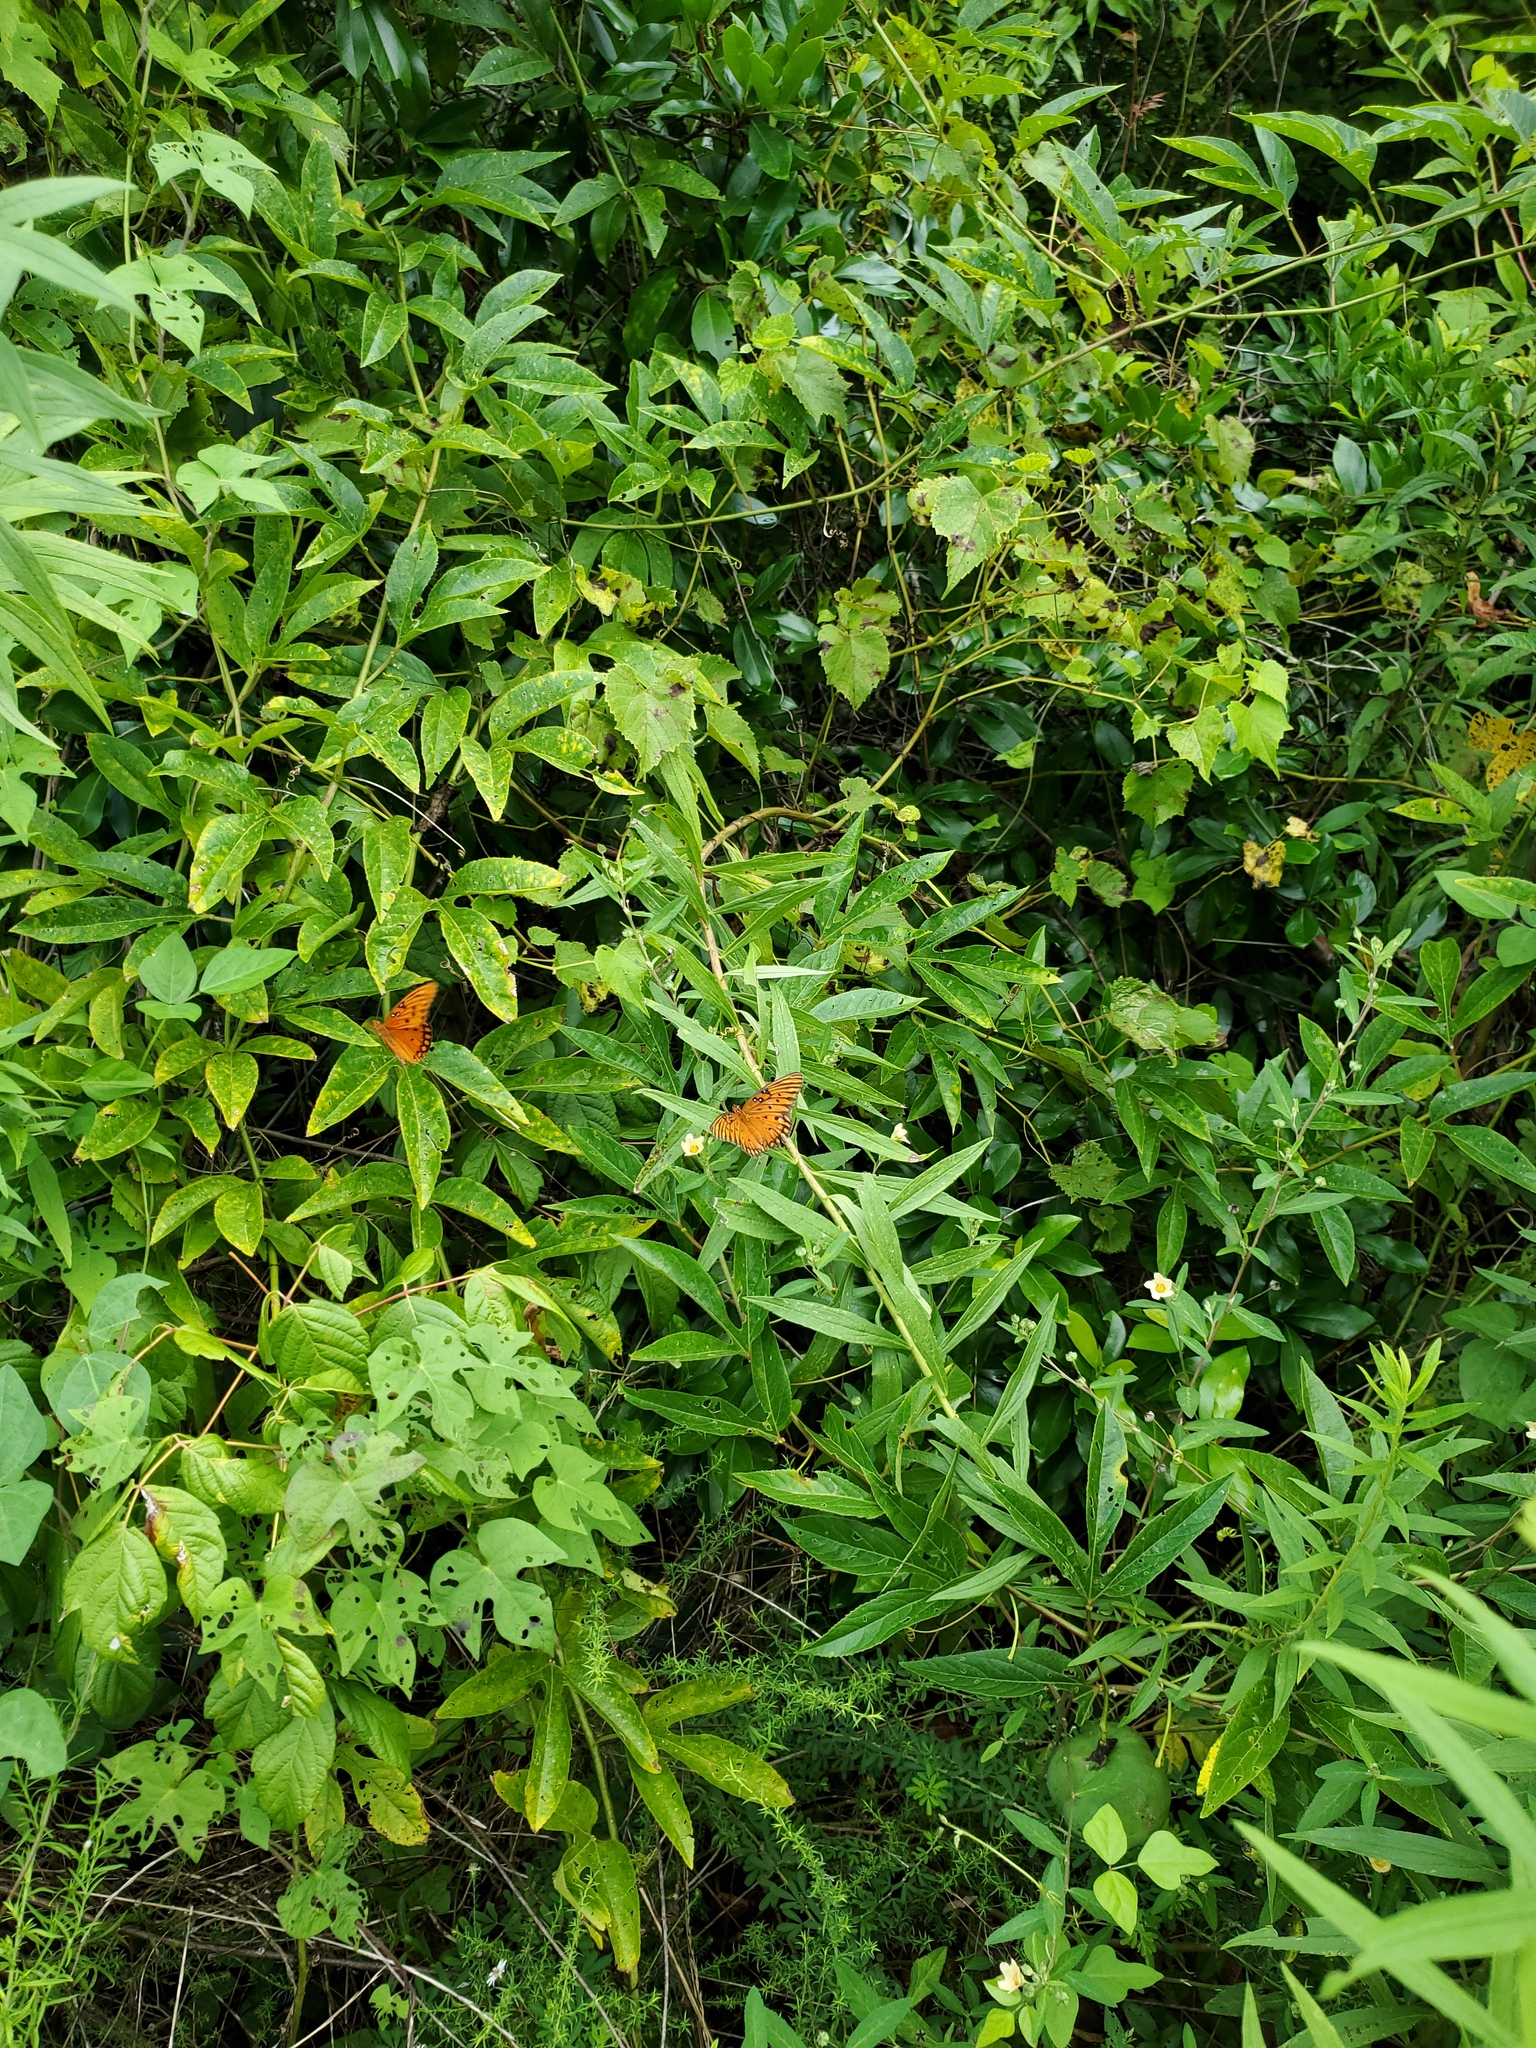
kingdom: Animalia
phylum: Arthropoda
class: Insecta
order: Lepidoptera
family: Nymphalidae
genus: Dione
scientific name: Dione vanillae
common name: Gulf fritillary
